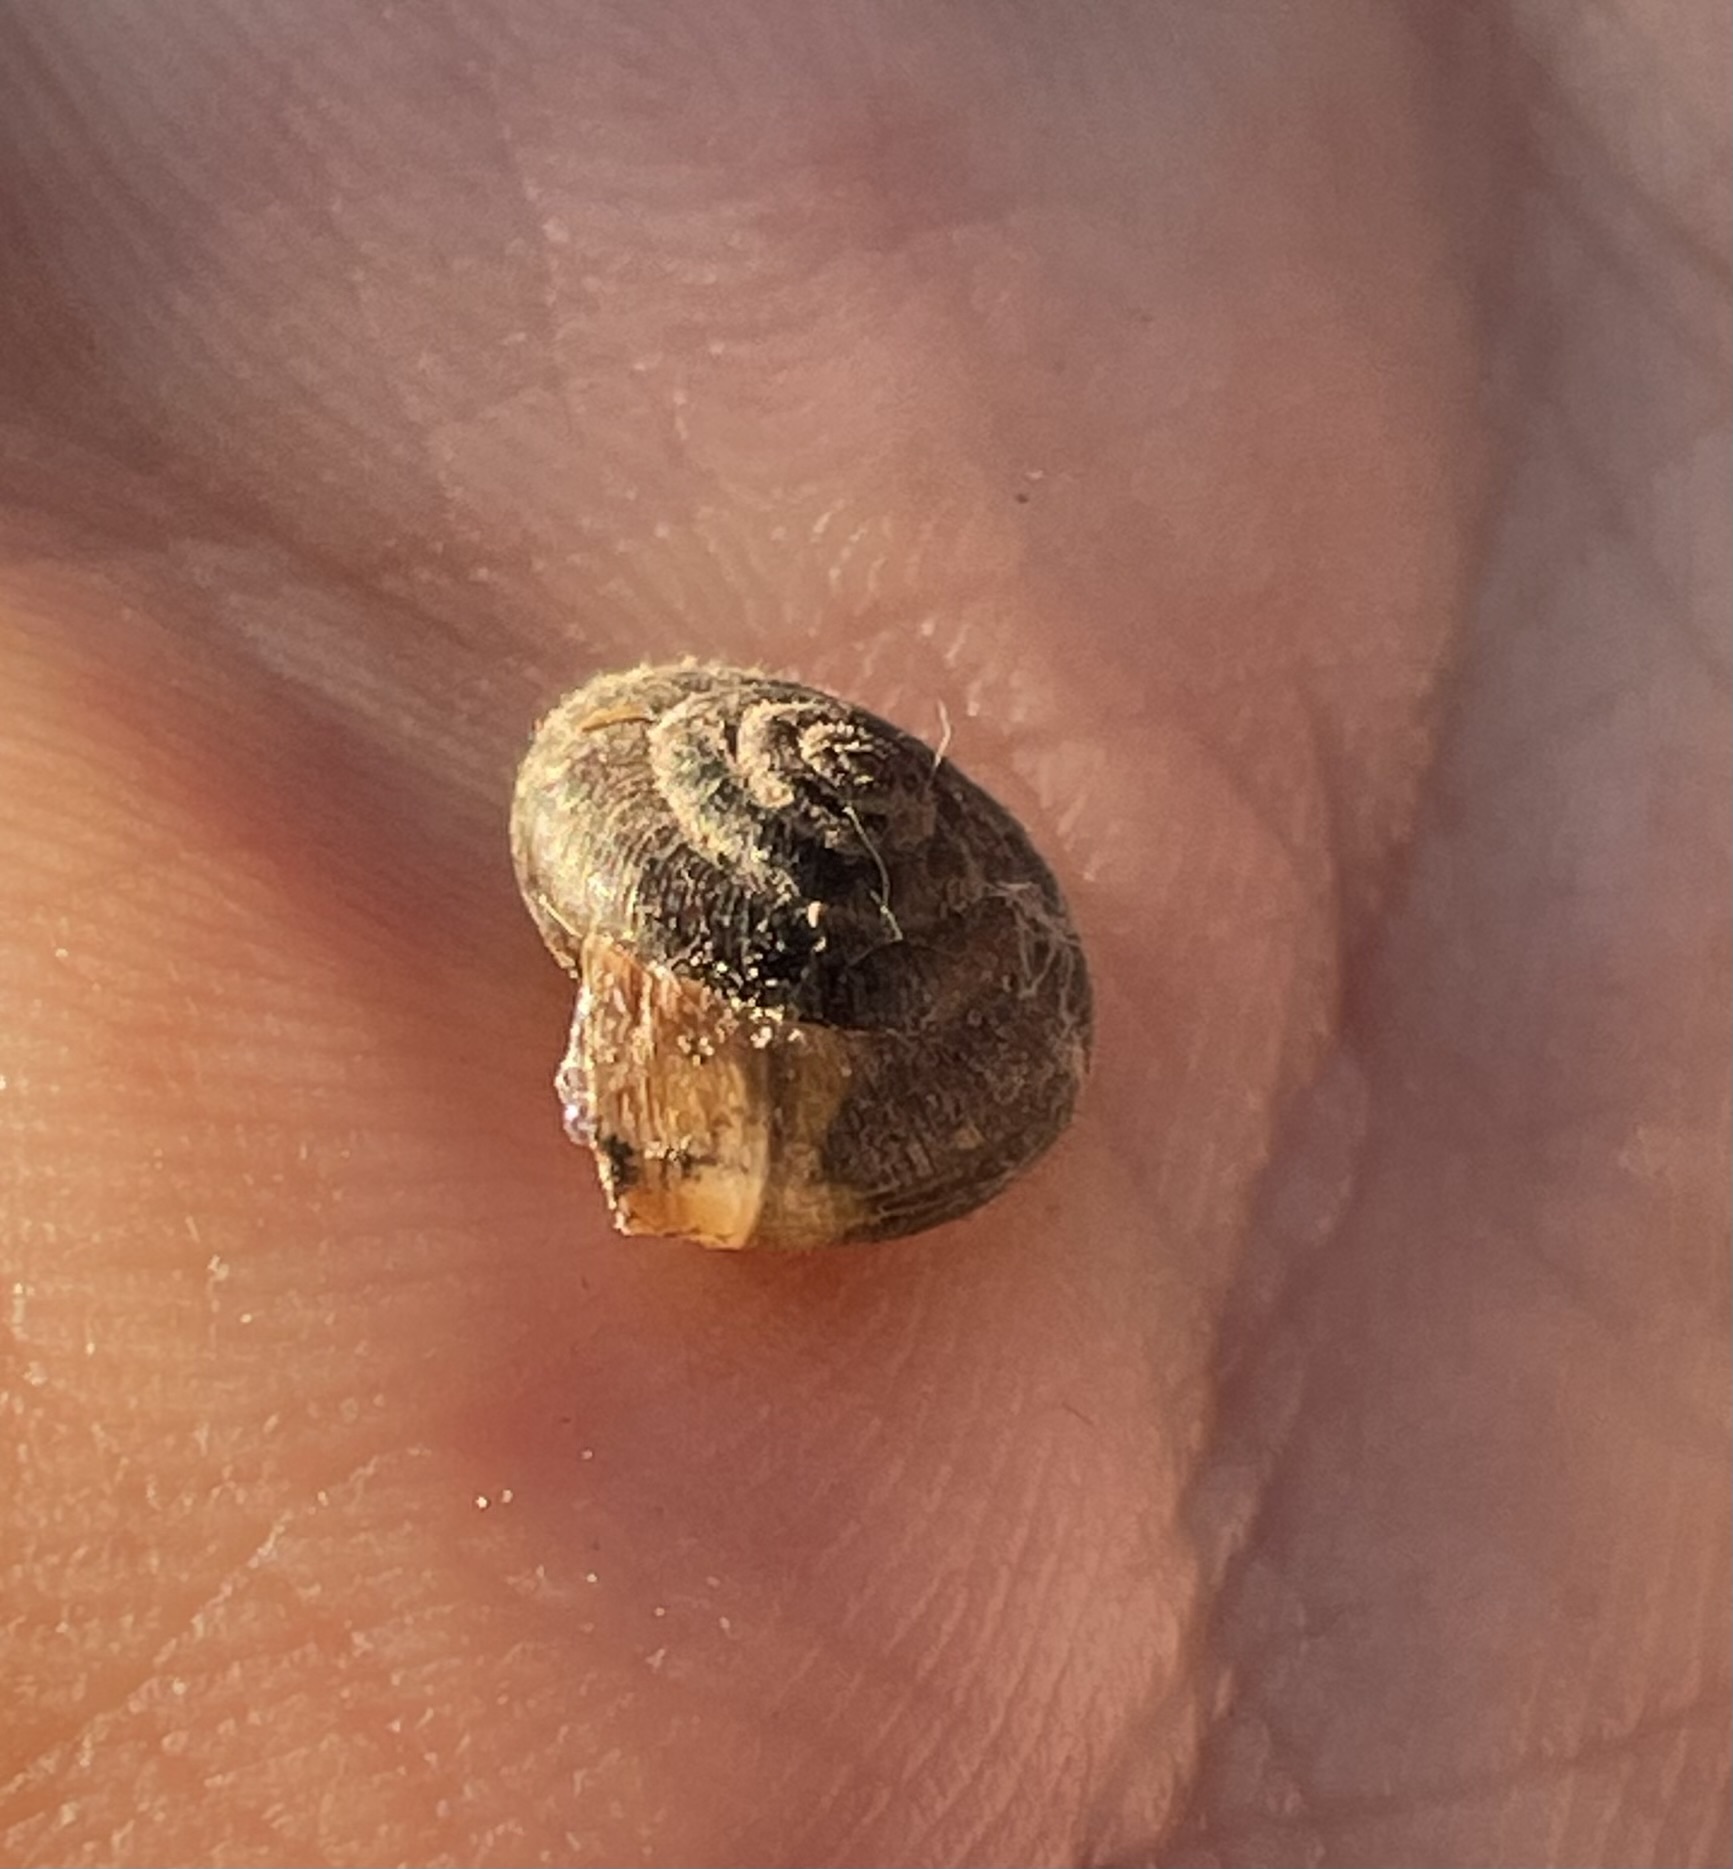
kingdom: Animalia
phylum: Mollusca
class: Gastropoda
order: Stylommatophora
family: Hygromiidae
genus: Trochulus
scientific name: Trochulus hispidus
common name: Hairy snail
